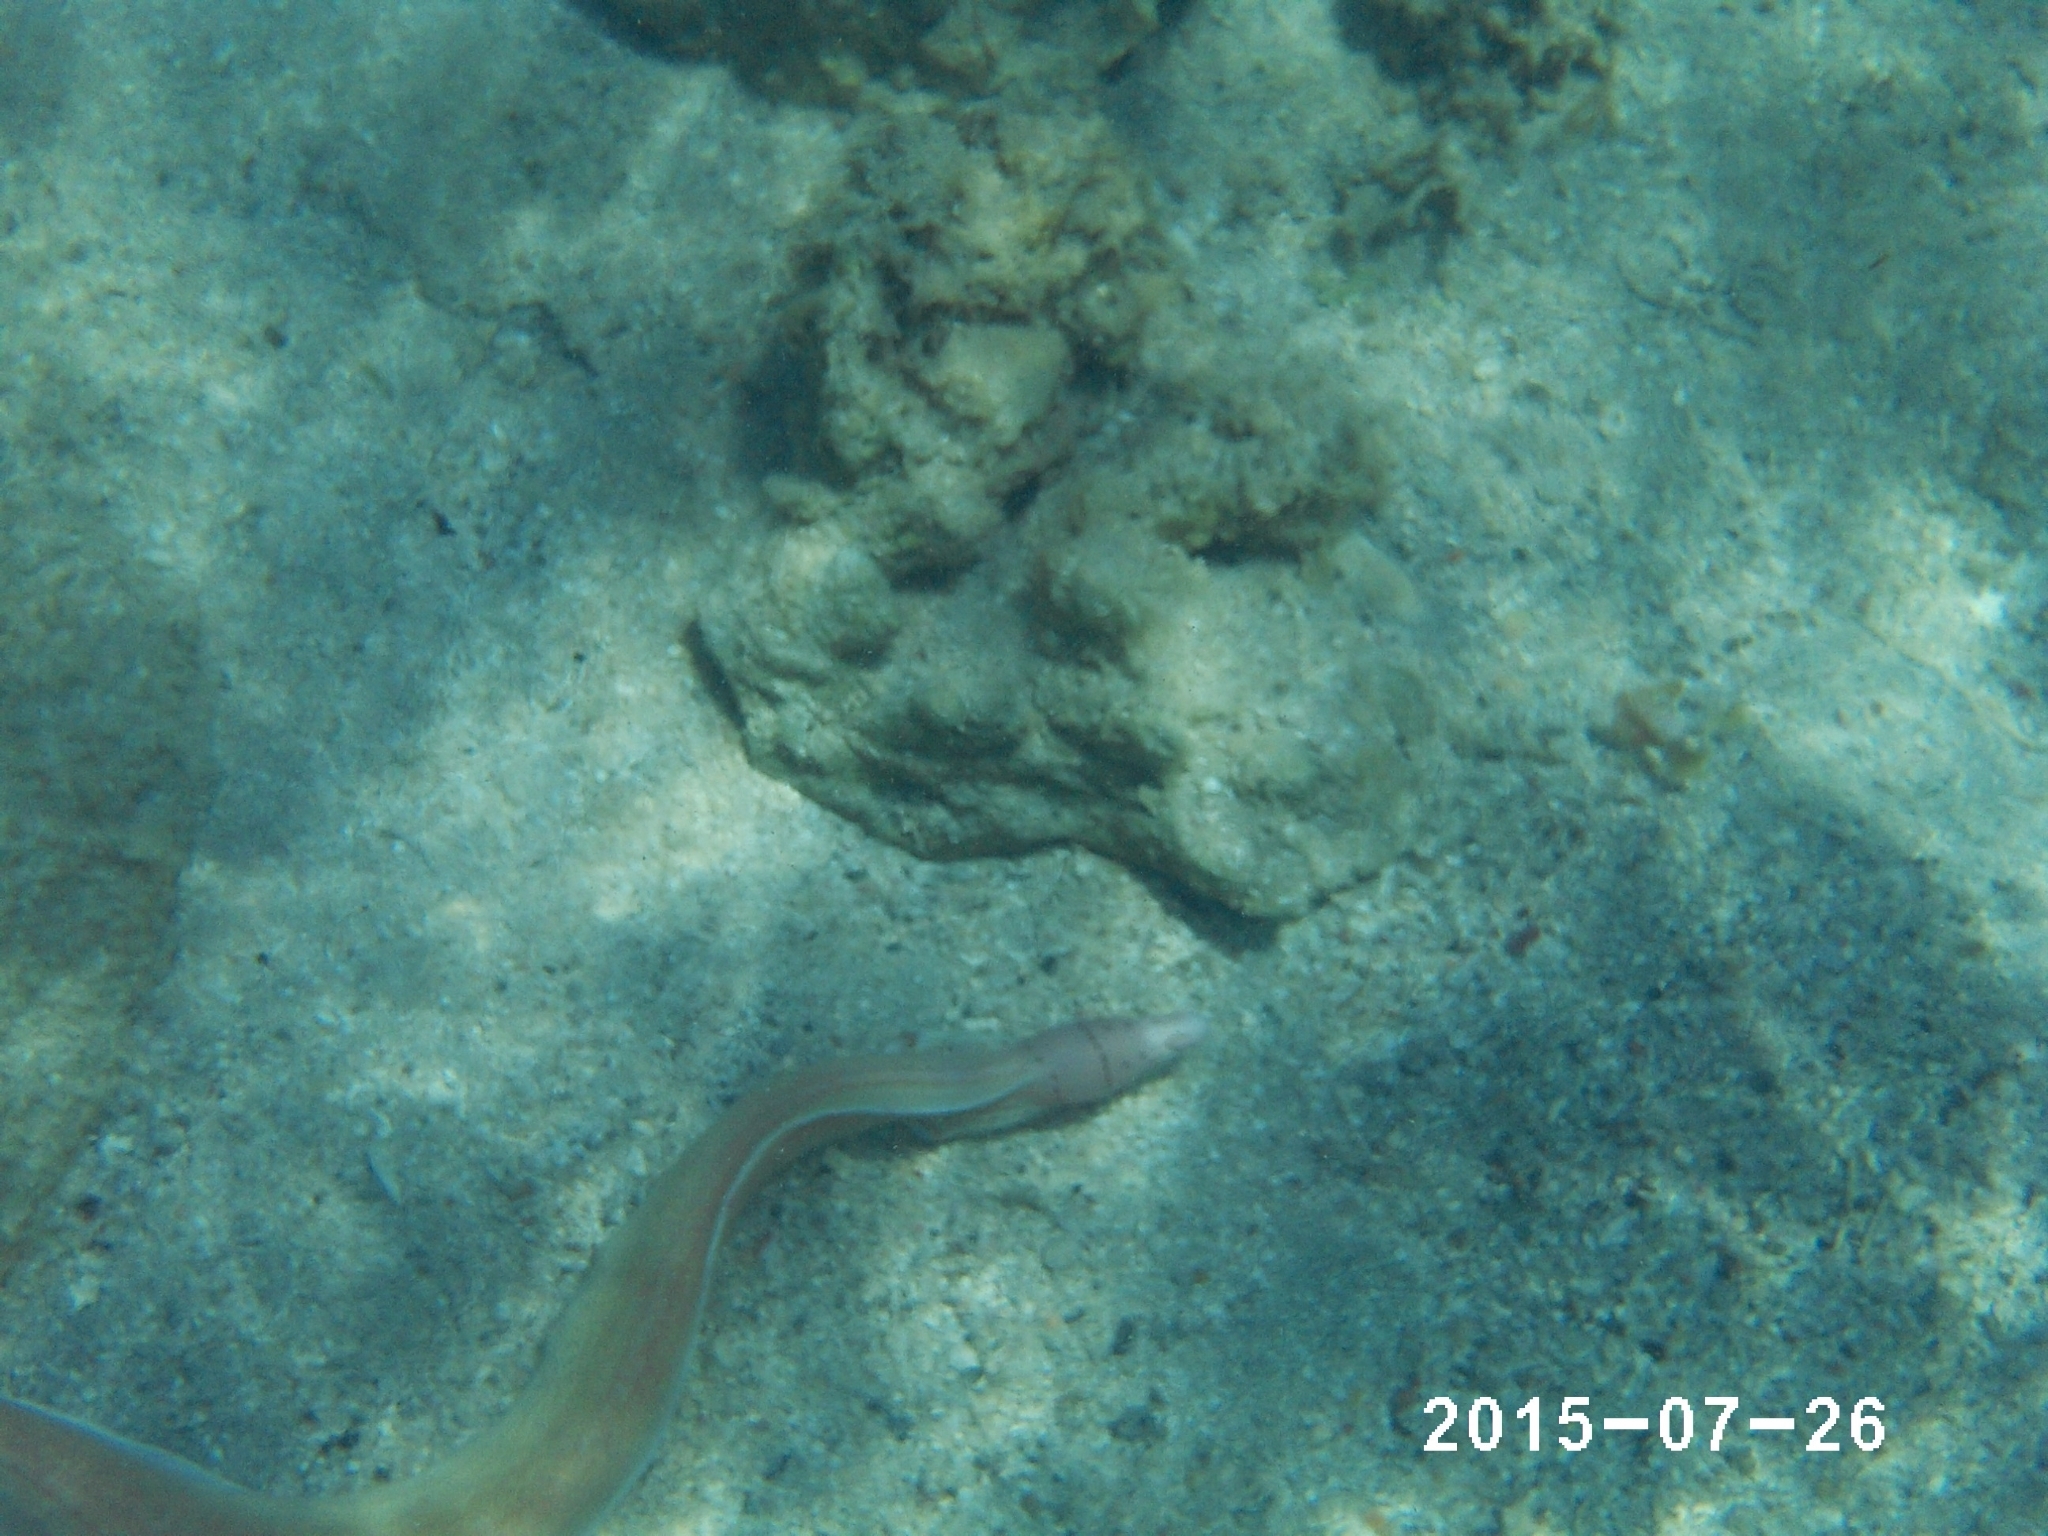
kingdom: Animalia
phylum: Chordata
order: Anguilliformes
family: Muraenidae
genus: Gymnothorax
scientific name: Gymnothorax griseus
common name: Geometric moray
